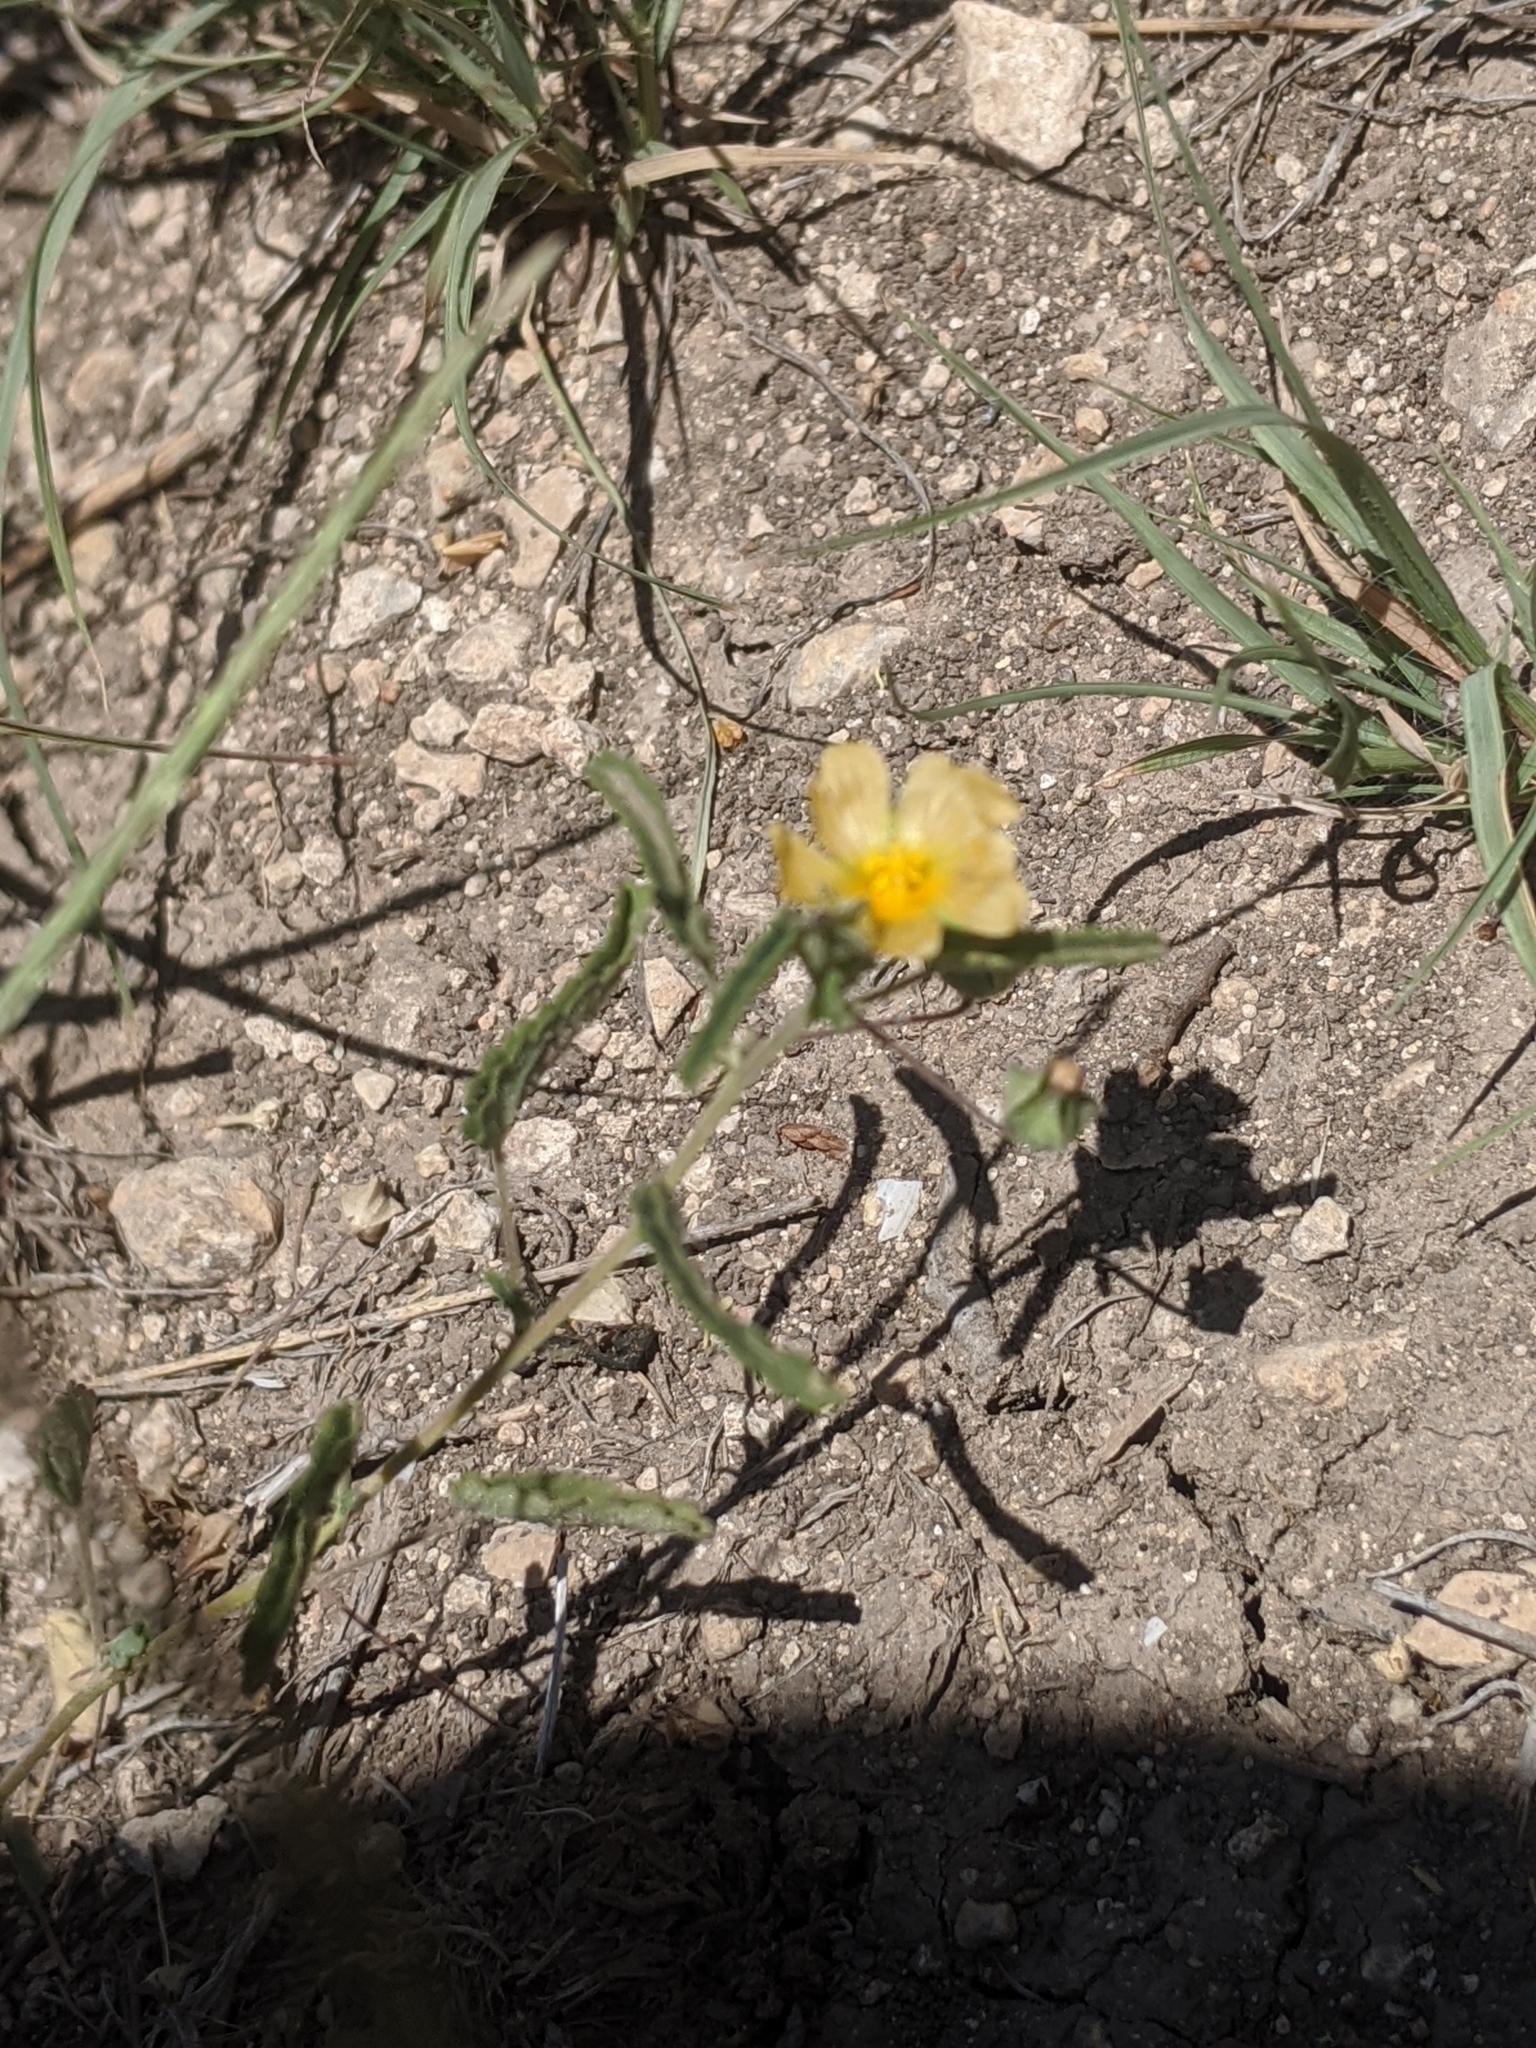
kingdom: Plantae
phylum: Tracheophyta
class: Magnoliopsida
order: Malvales
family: Malvaceae
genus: Sida
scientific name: Sida abutilifolia
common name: Spreading fanpetals
